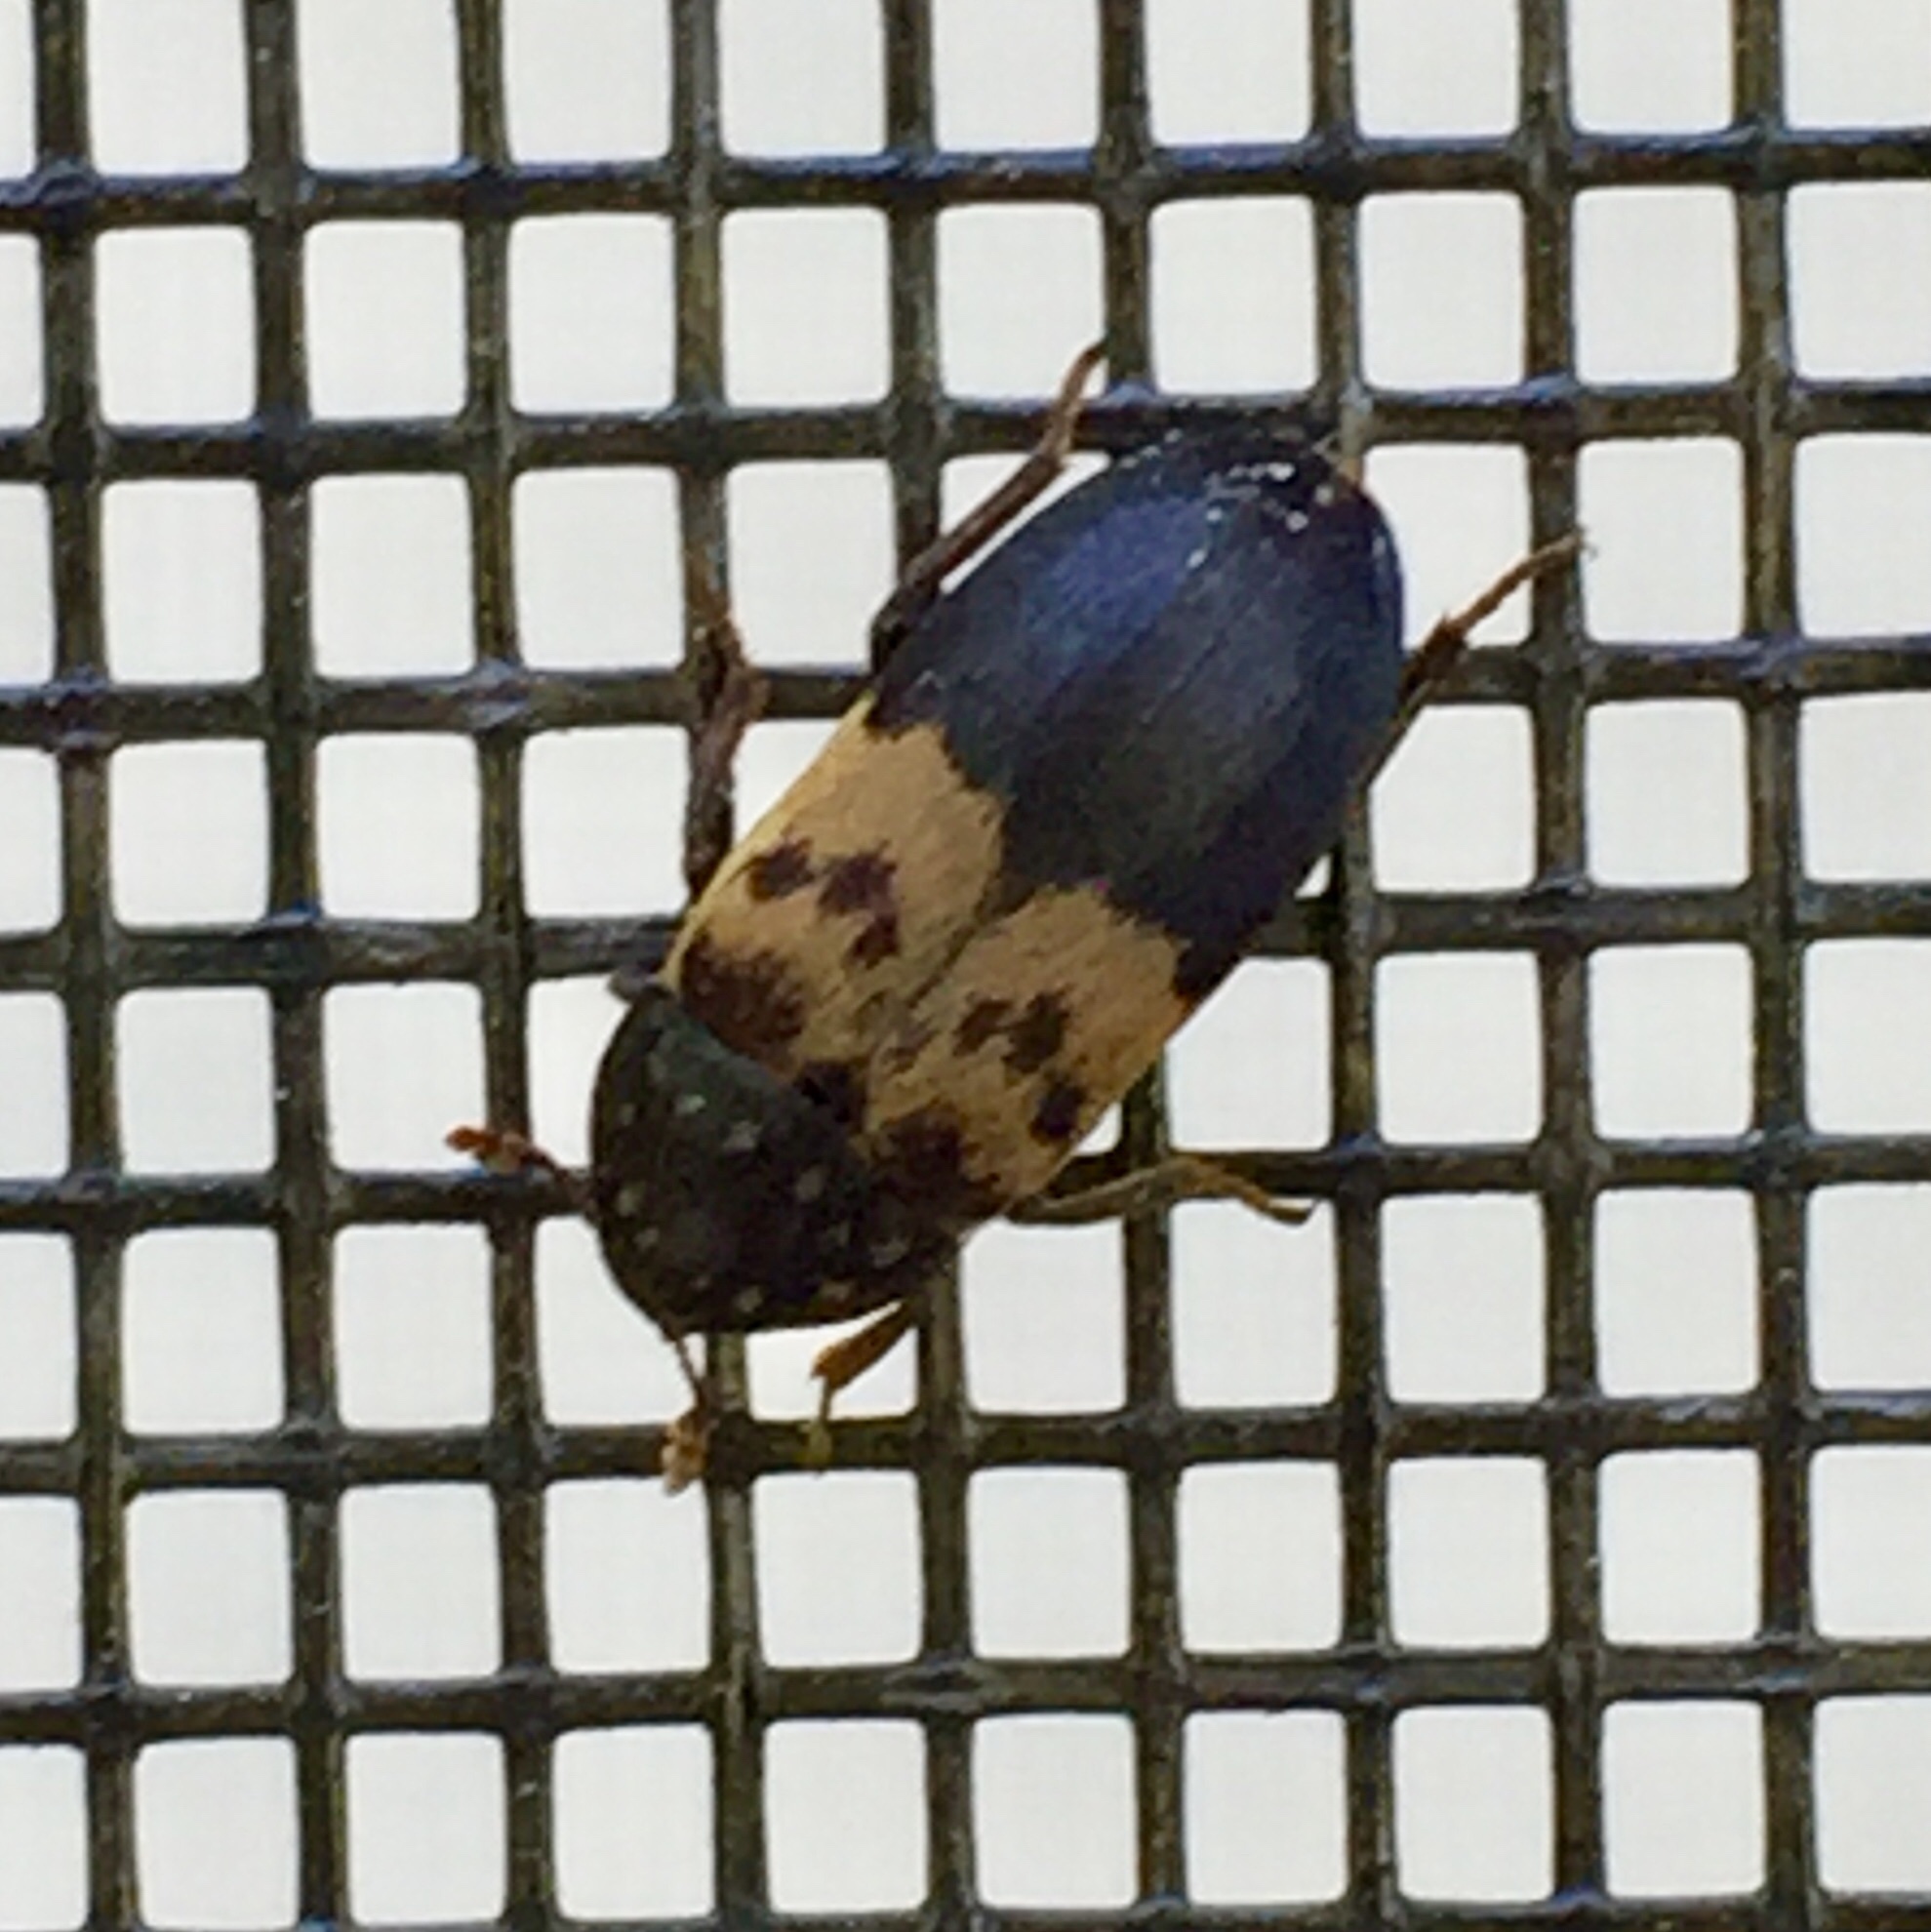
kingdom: Animalia
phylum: Arthropoda
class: Insecta
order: Coleoptera
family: Dermestidae
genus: Dermestes
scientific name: Dermestes lardarius
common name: Larder beetle
